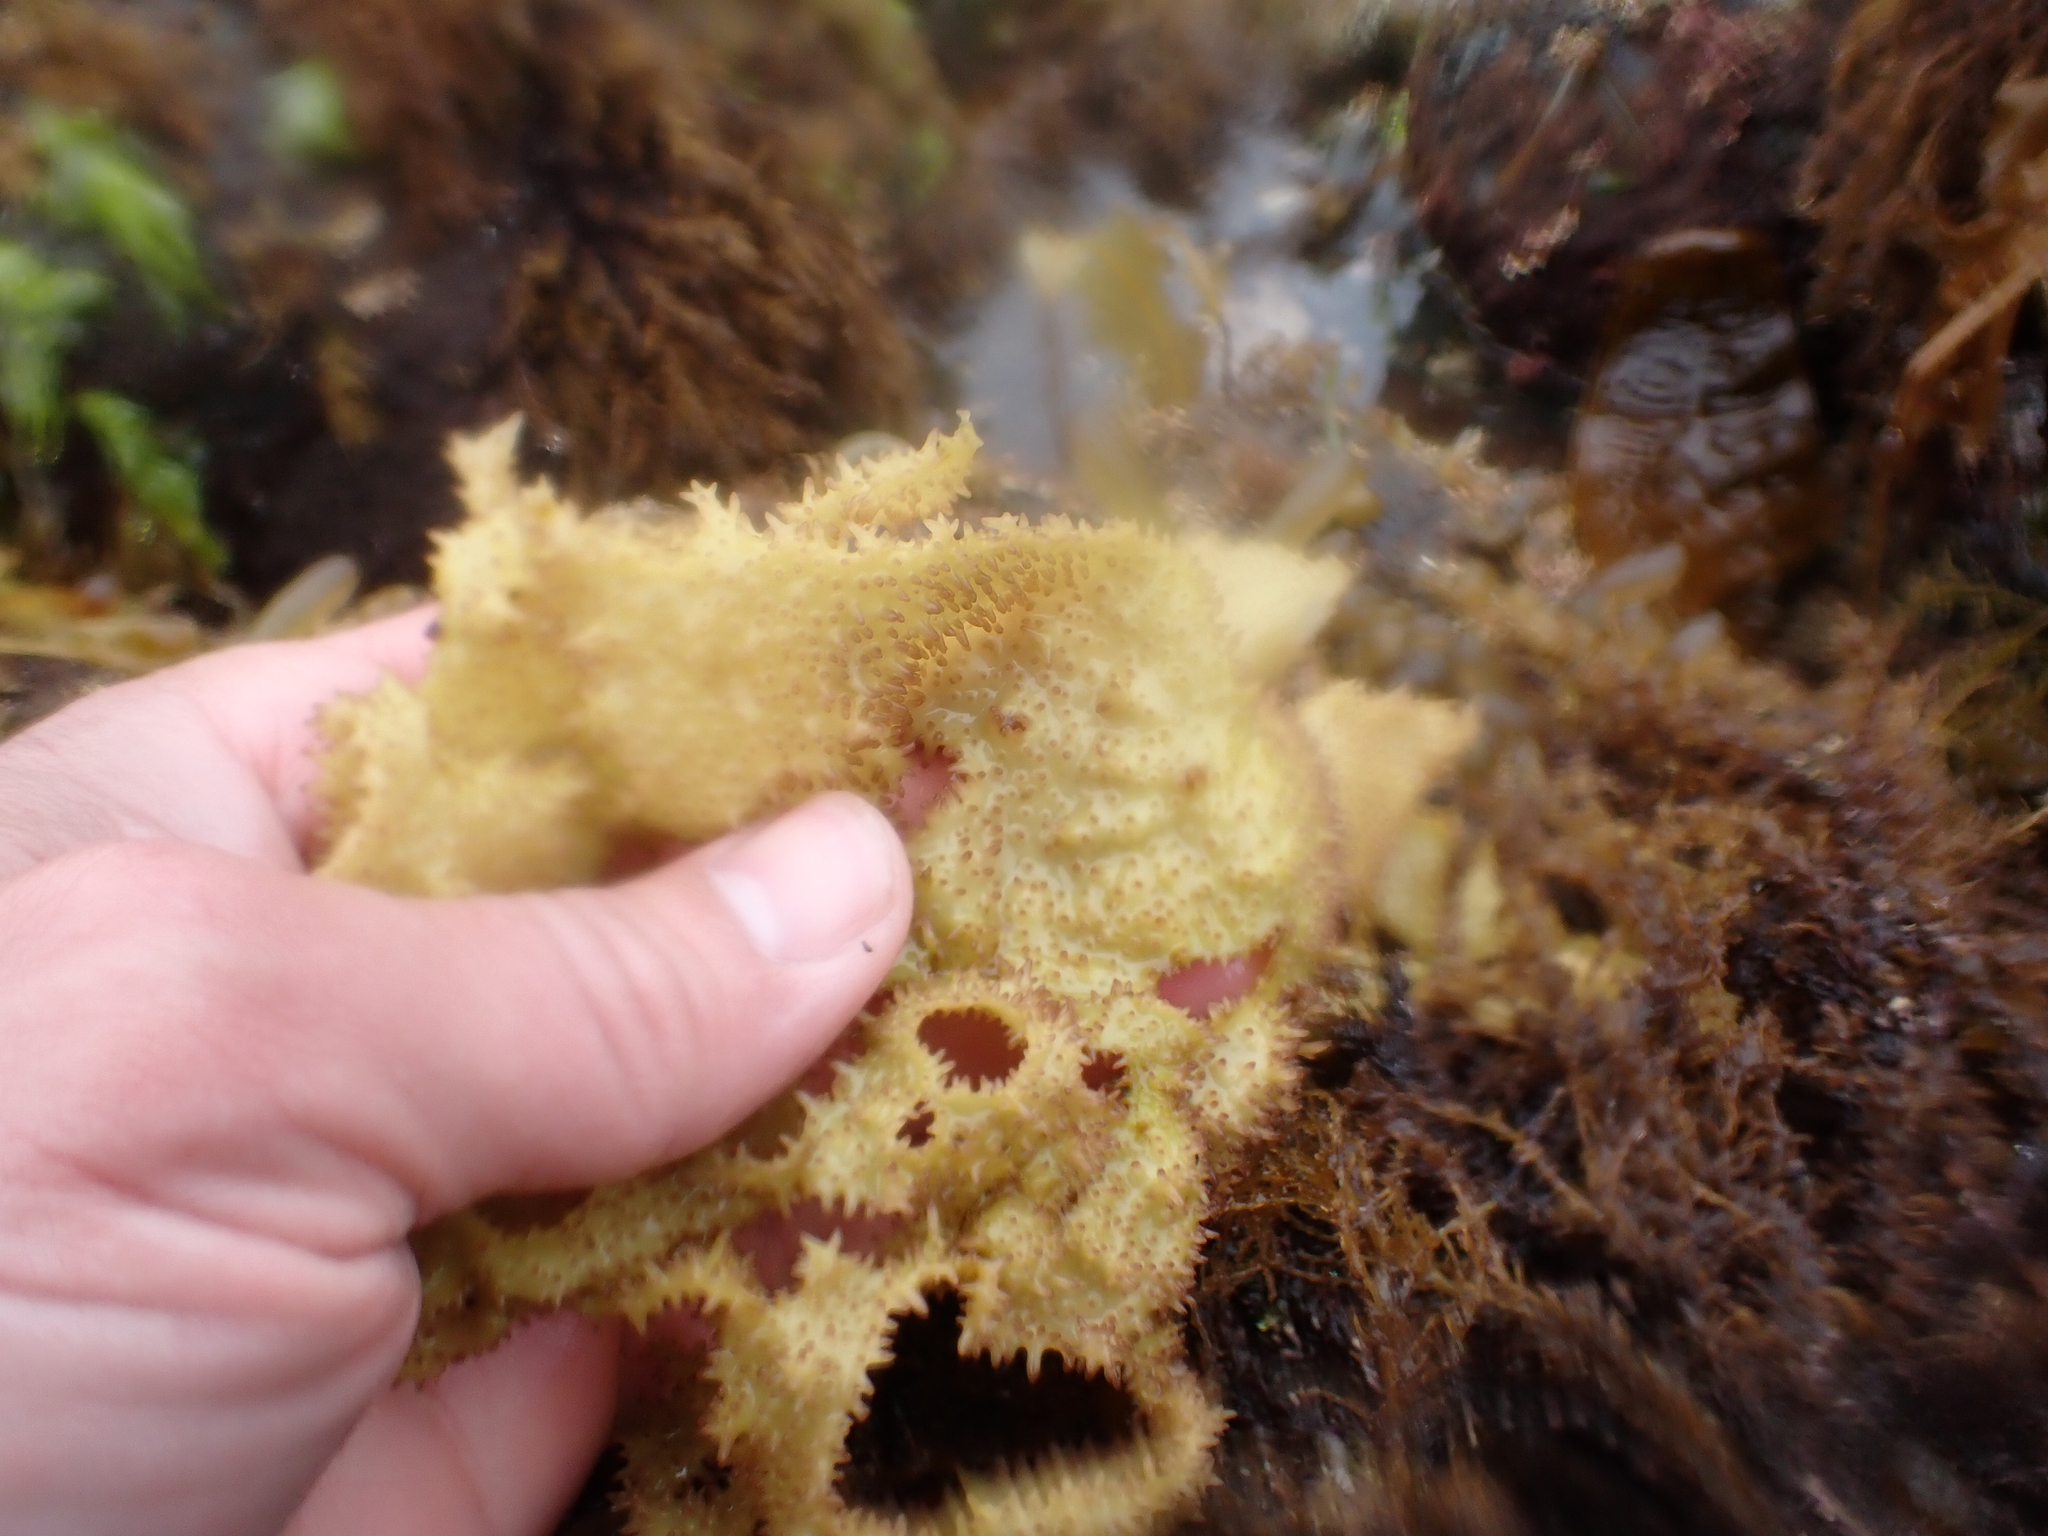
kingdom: Plantae
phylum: Rhodophyta
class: Florideophyceae
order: Gigartinales
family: Gigartinaceae
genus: Chondracanthus
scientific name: Chondracanthus exasperatus
